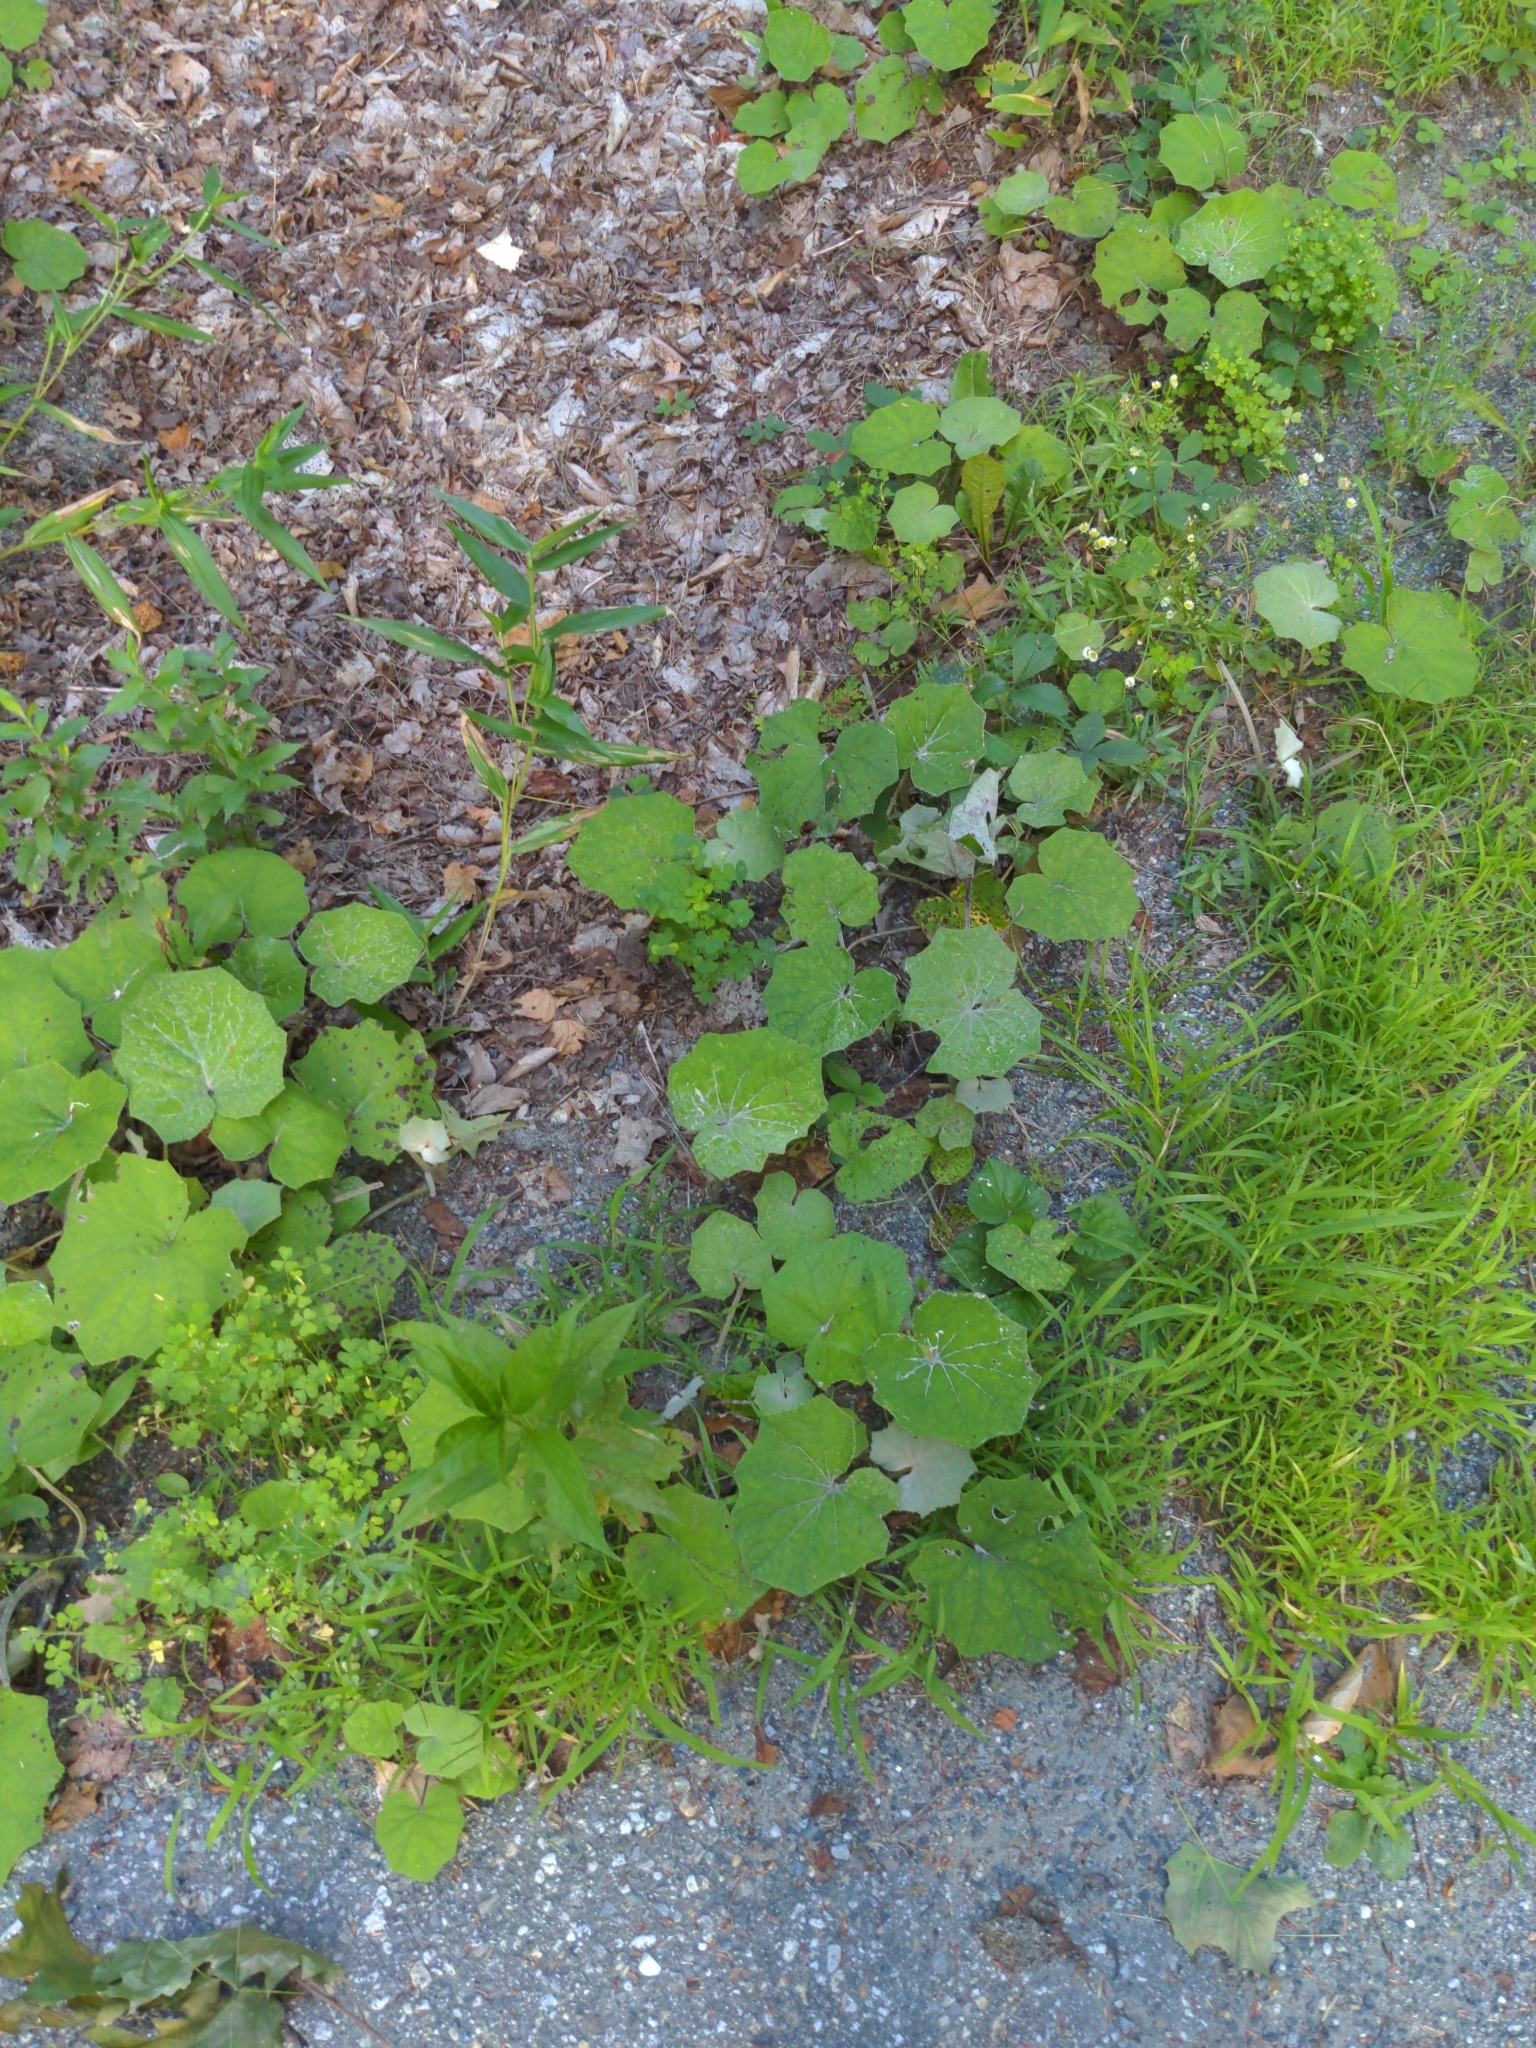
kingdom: Plantae
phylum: Tracheophyta
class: Magnoliopsida
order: Asterales
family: Asteraceae
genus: Tussilago
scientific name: Tussilago farfara
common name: Coltsfoot
